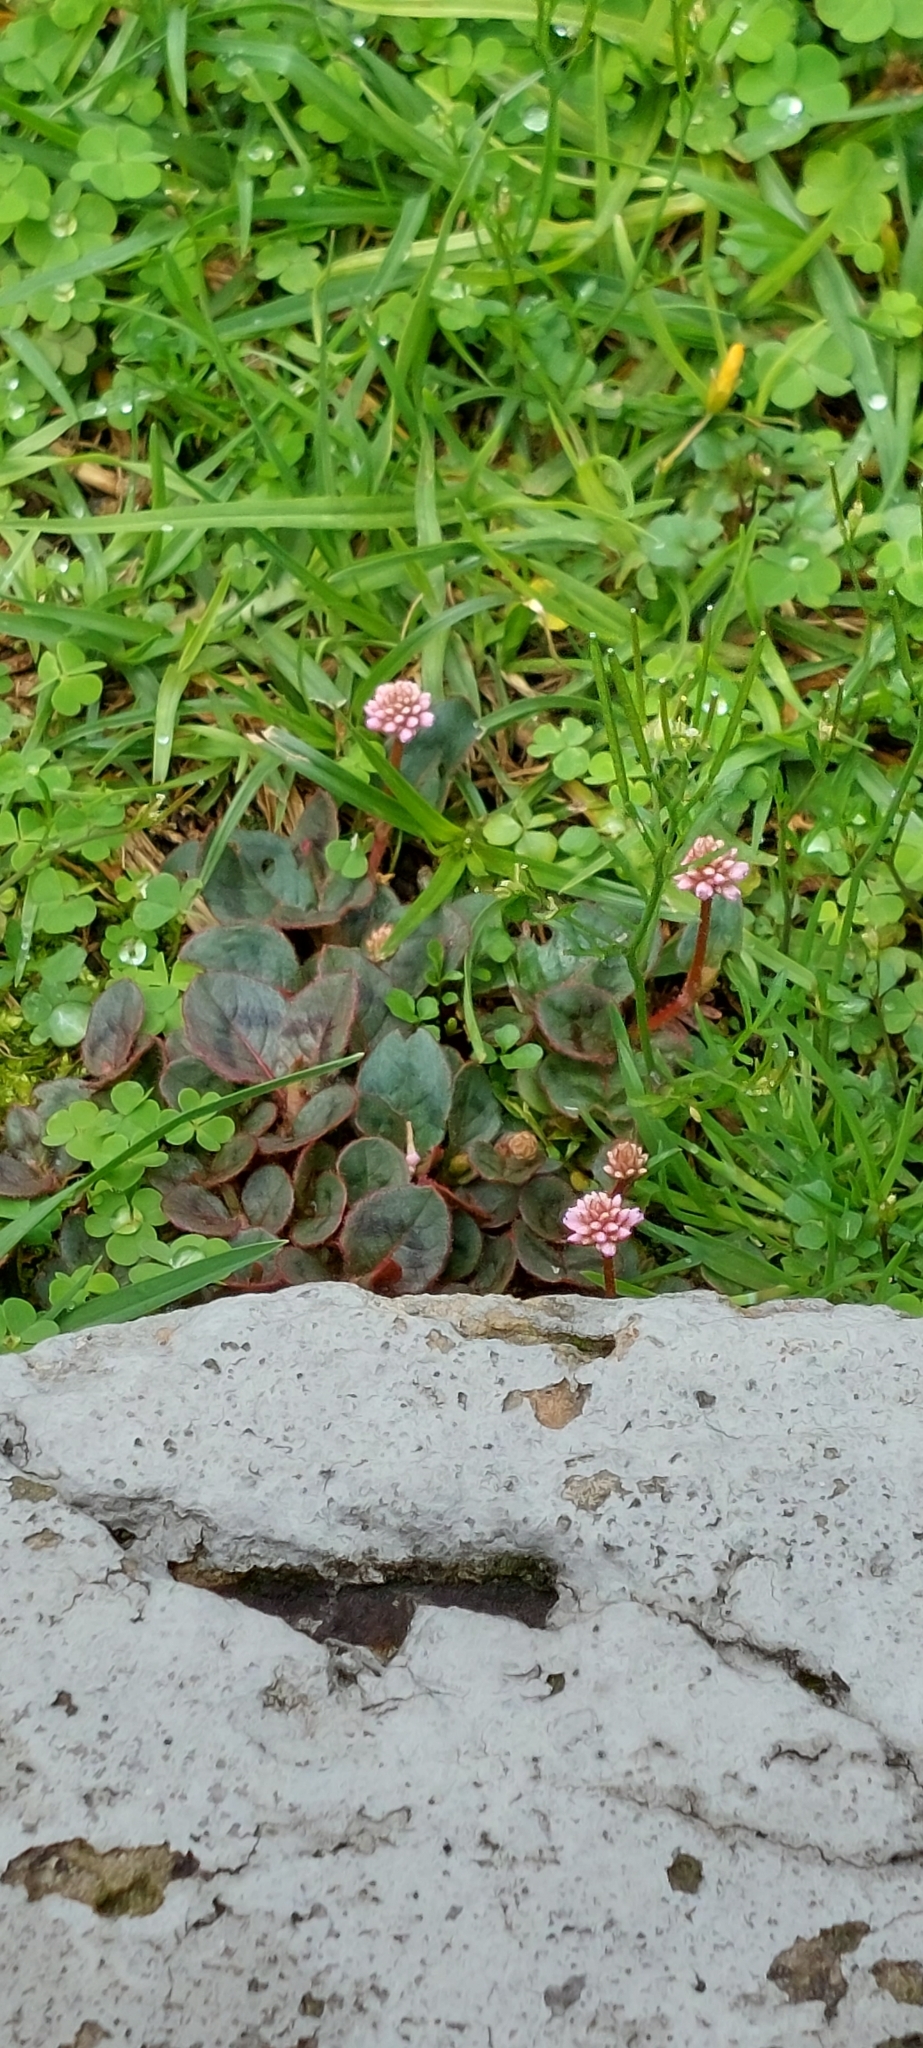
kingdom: Plantae
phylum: Tracheophyta
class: Magnoliopsida
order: Caryophyllales
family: Polygonaceae
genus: Persicaria
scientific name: Persicaria capitata
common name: Pinkhead smartweed
